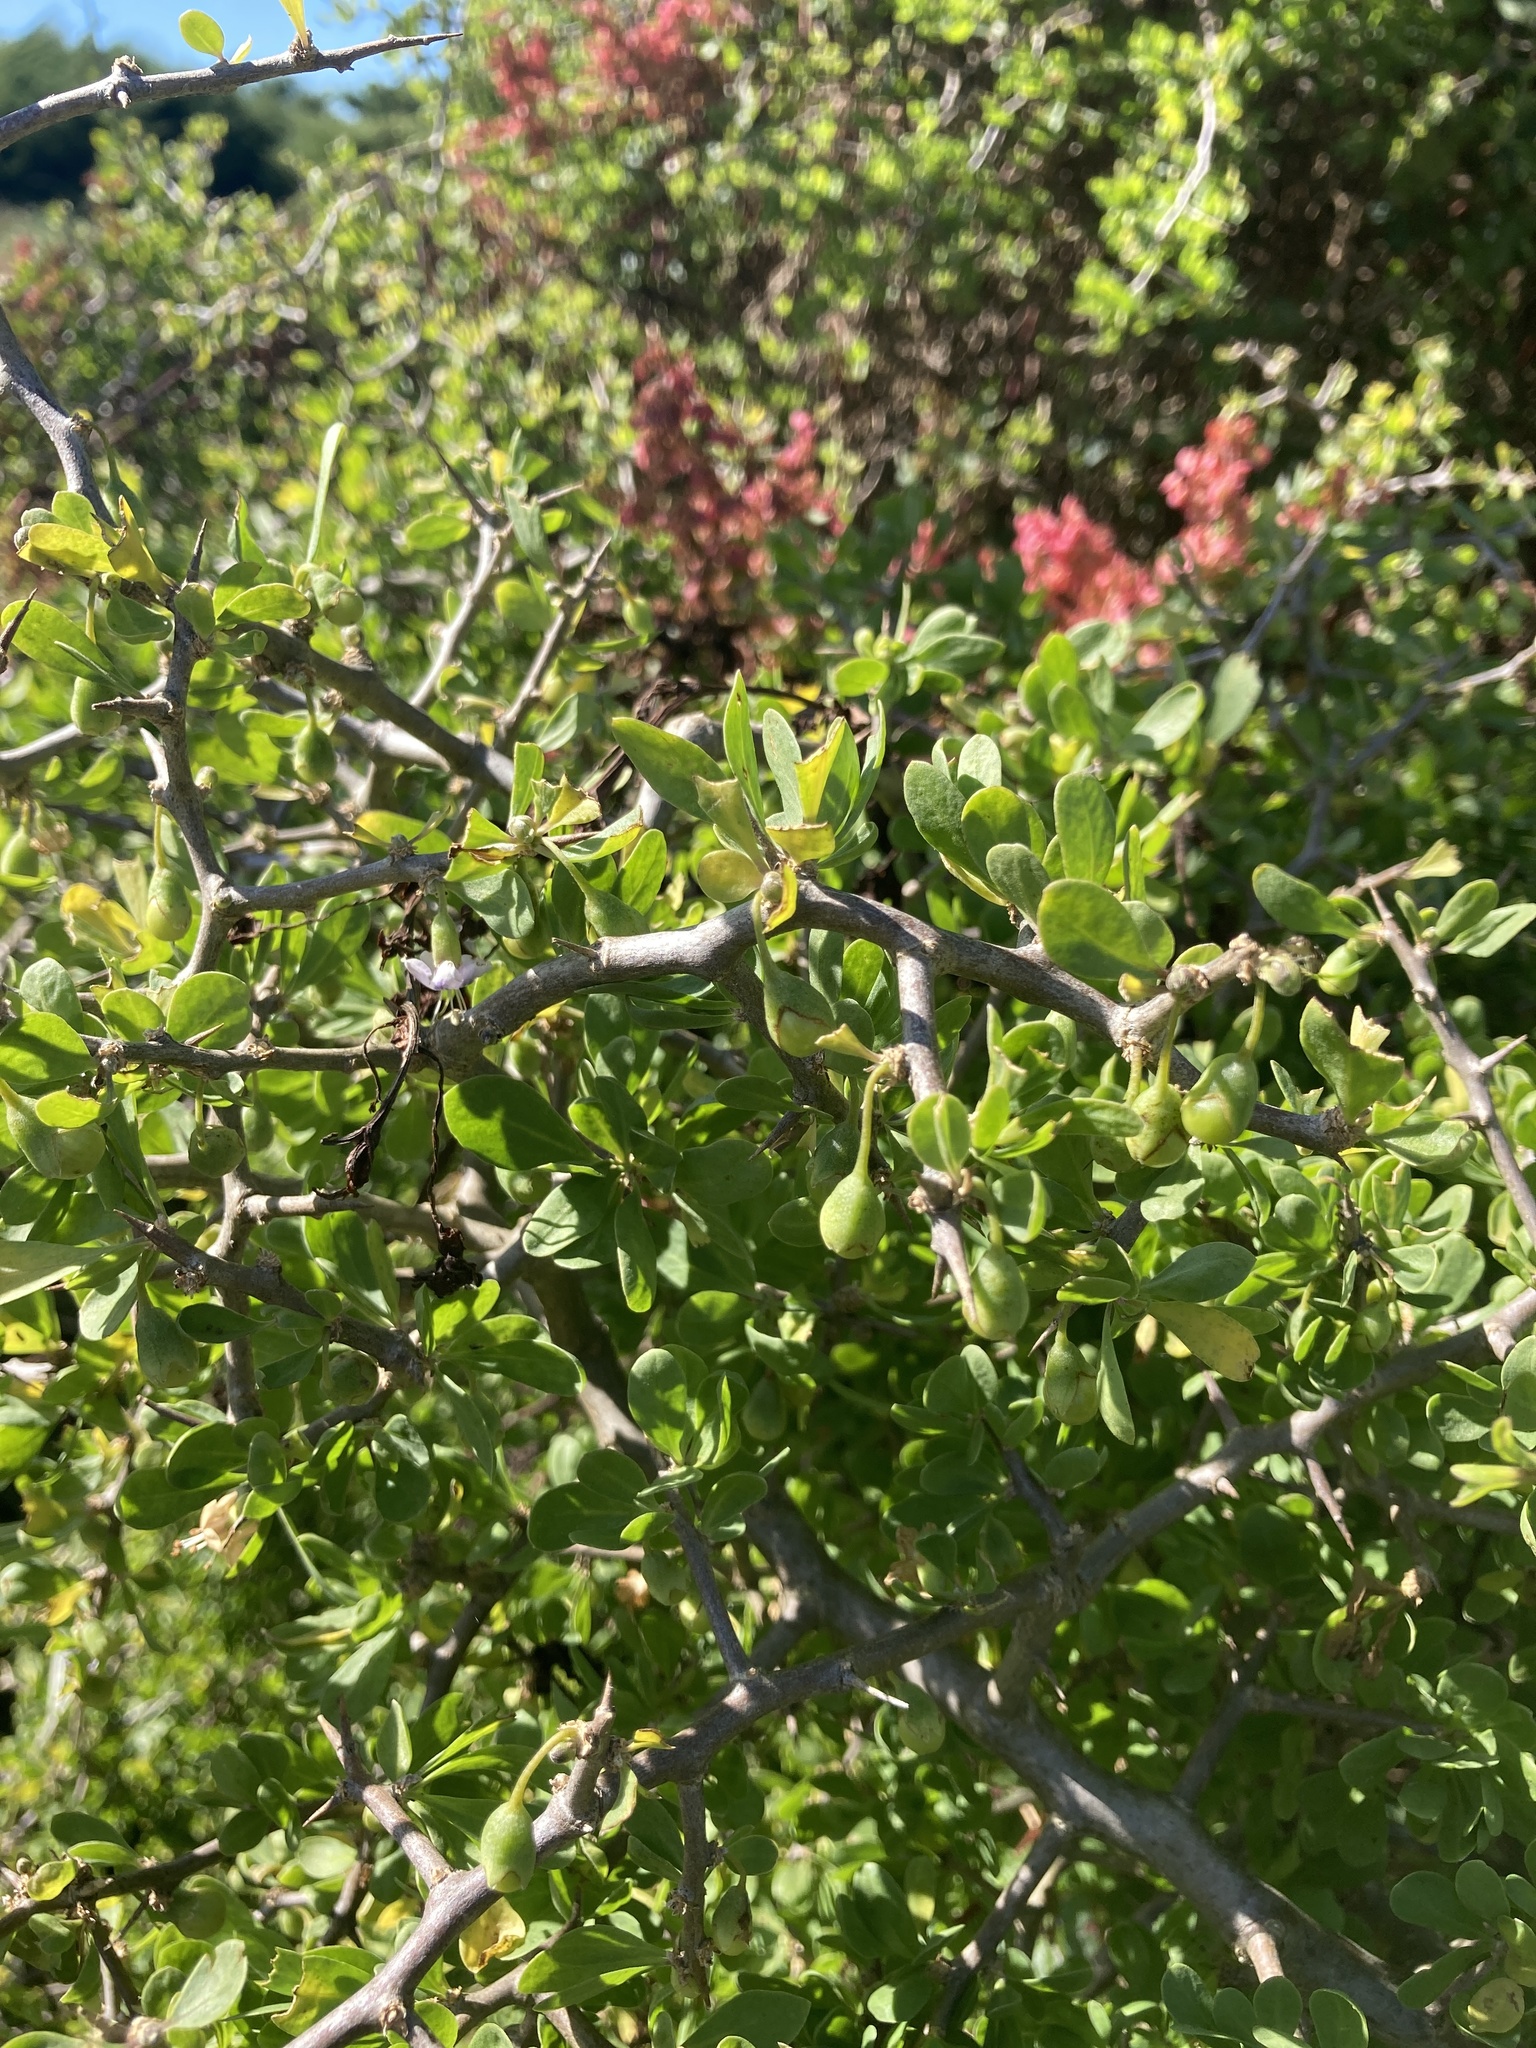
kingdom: Plantae
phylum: Tracheophyta
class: Magnoliopsida
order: Solanales
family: Solanaceae
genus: Lycium
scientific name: Lycium ferocissimum
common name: African boxthorn
